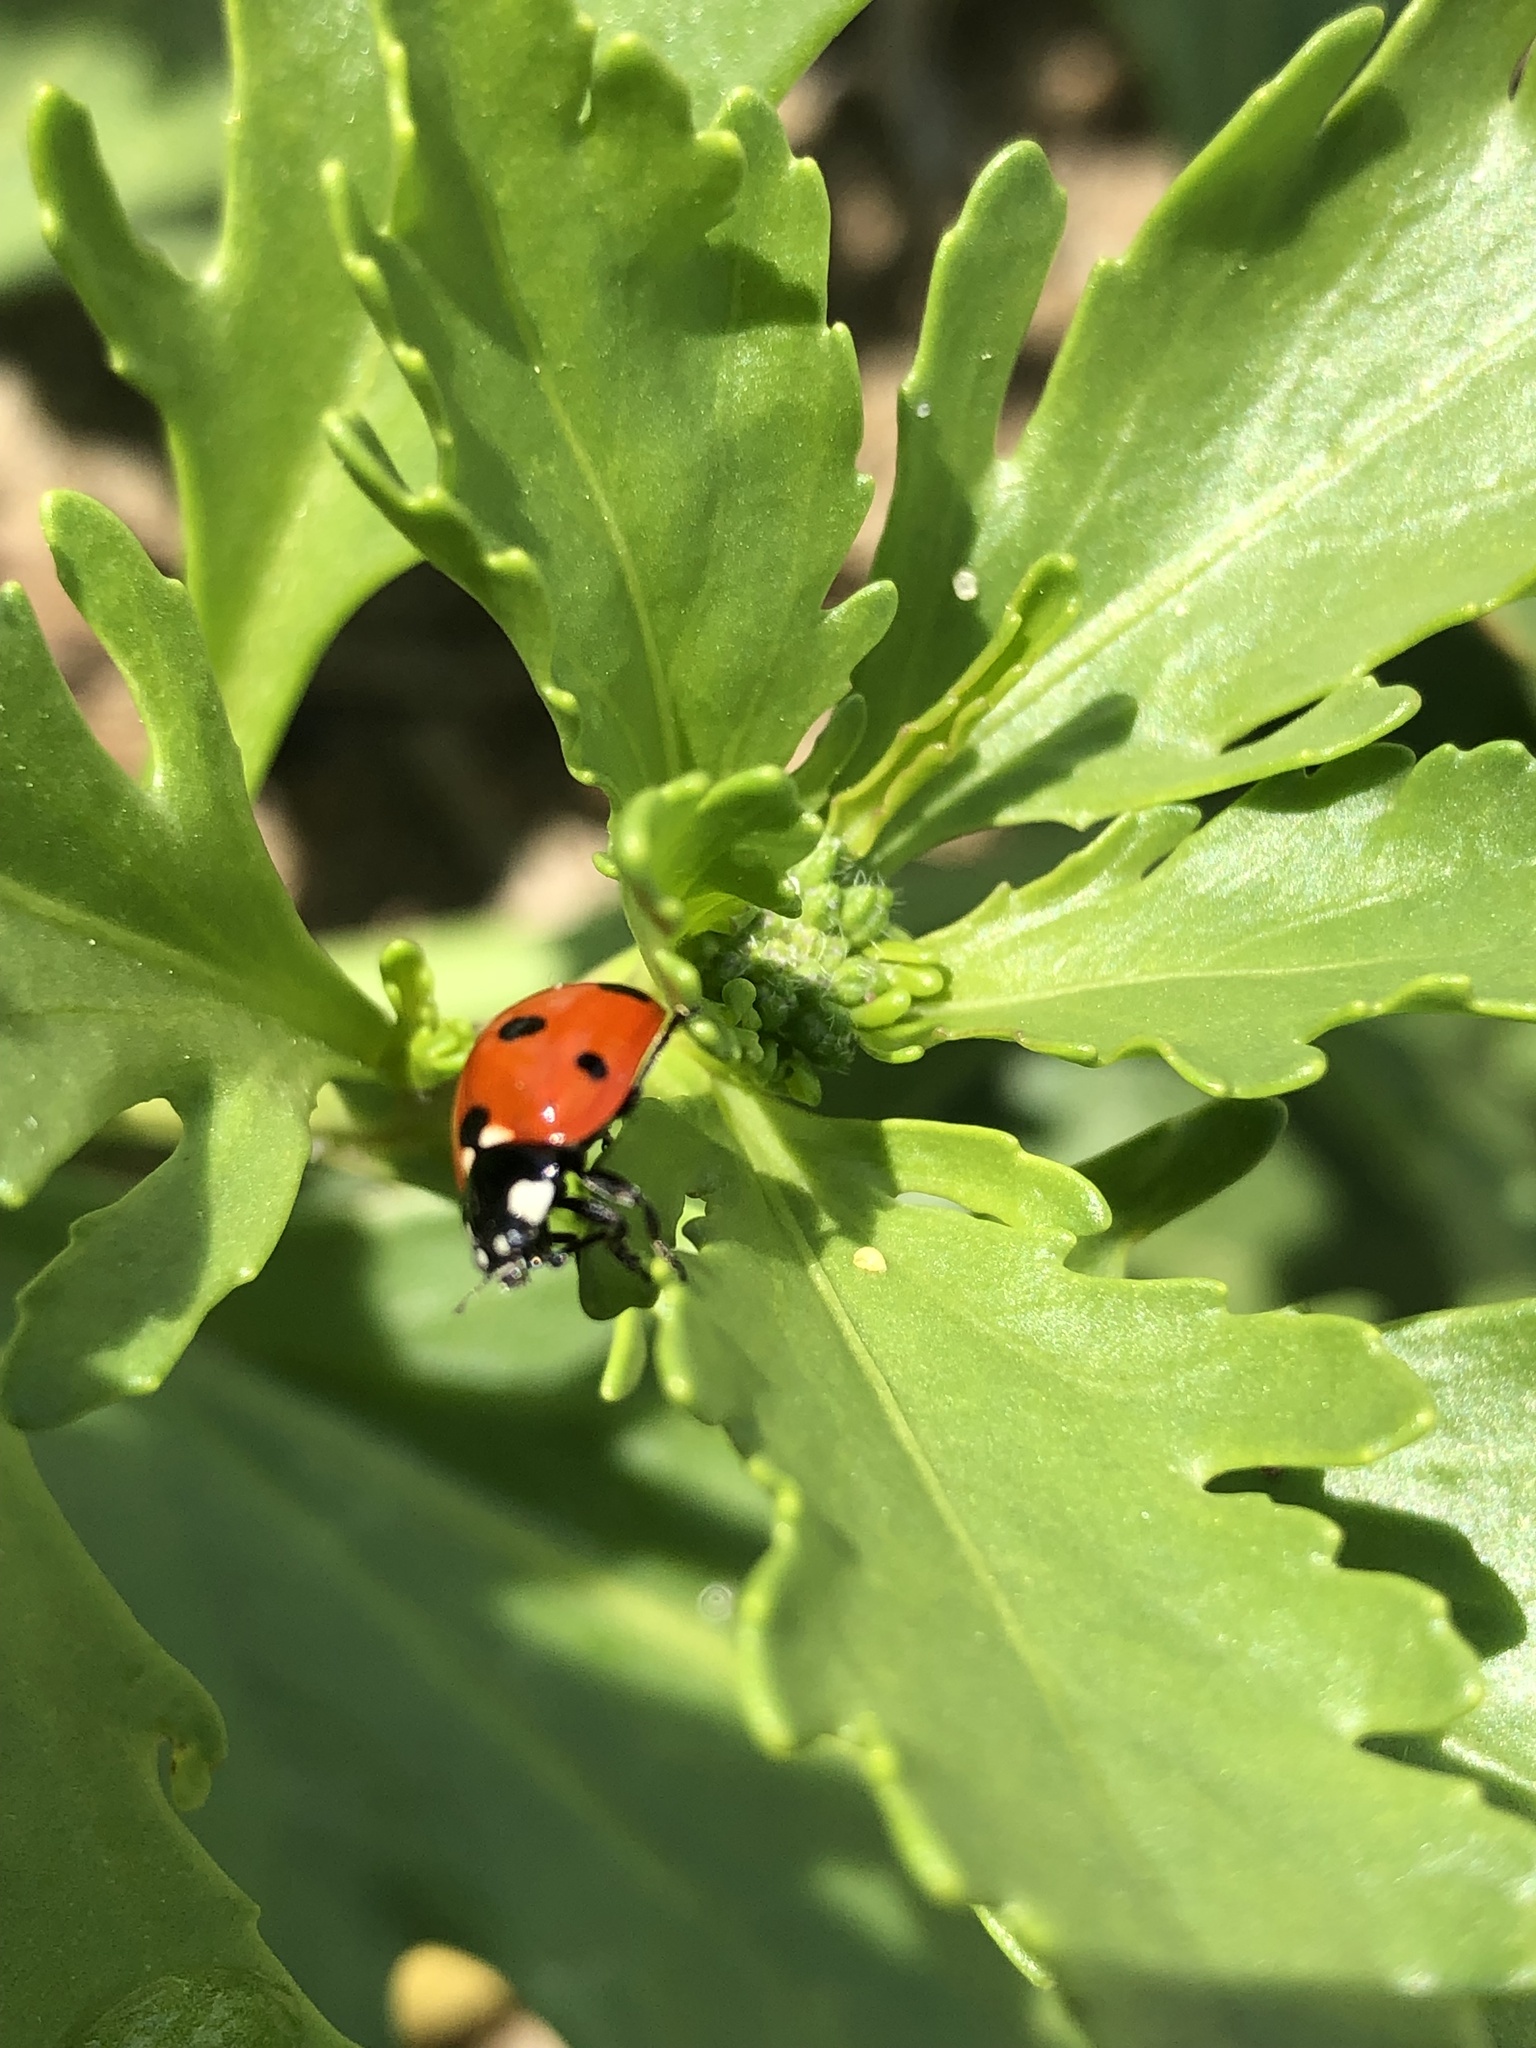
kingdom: Animalia
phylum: Arthropoda
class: Insecta
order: Coleoptera
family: Coccinellidae
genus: Coccinella
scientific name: Coccinella septempunctata
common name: Sevenspotted lady beetle
